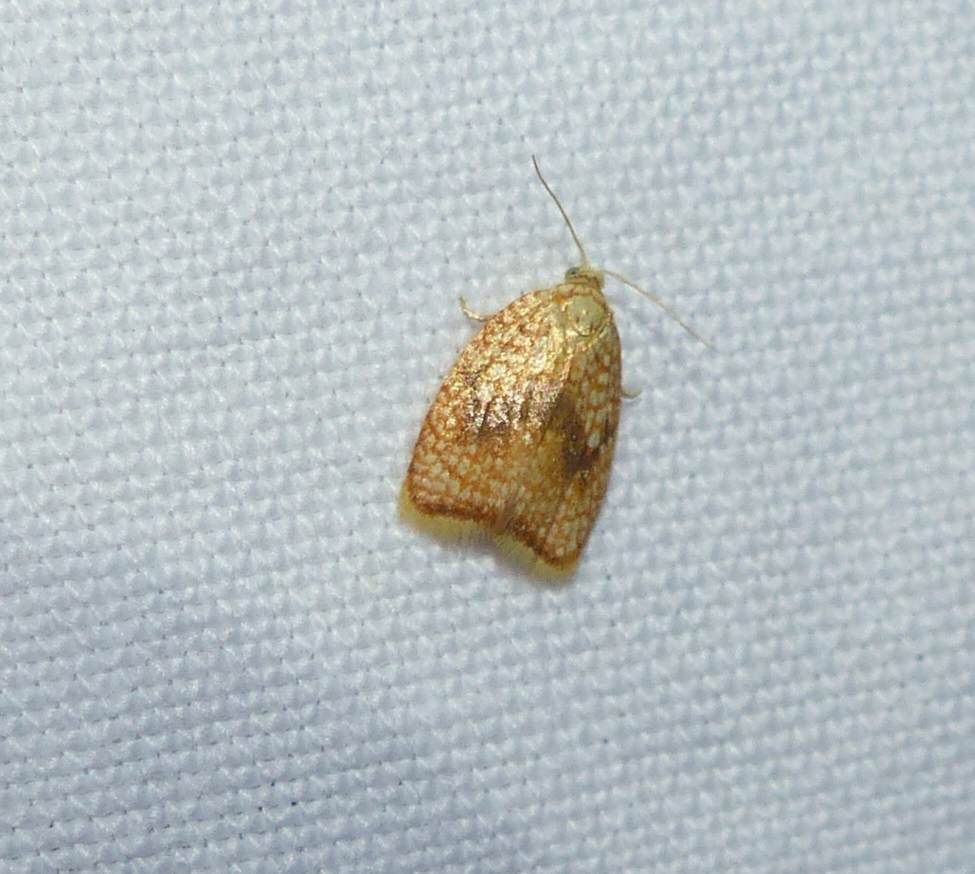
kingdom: Animalia
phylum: Arthropoda
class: Insecta
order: Lepidoptera
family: Tortricidae
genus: Acleris
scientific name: Acleris forsskaleana
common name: Maple button
